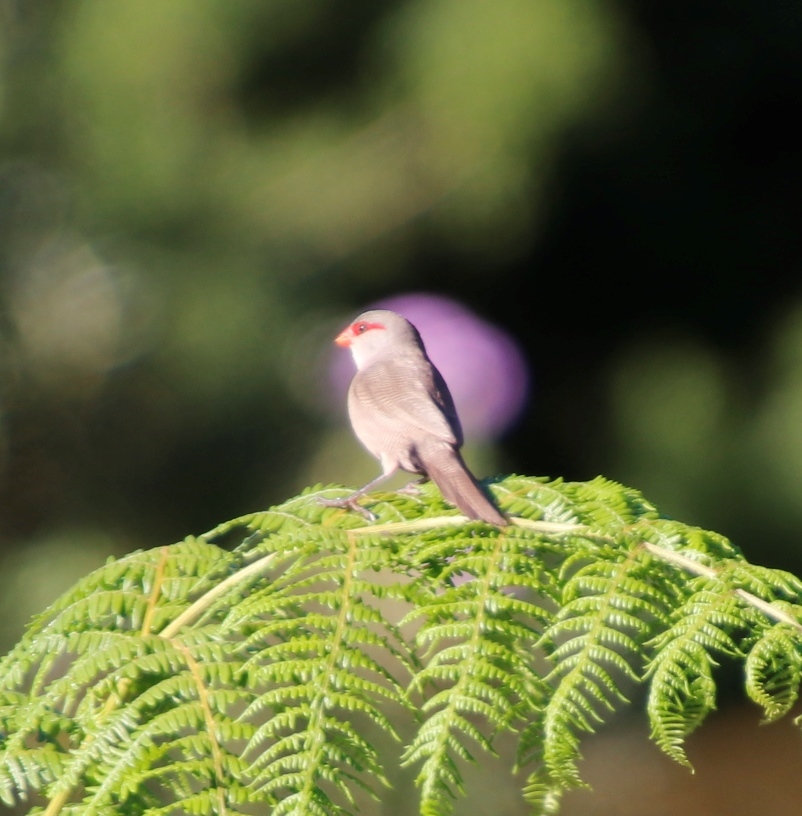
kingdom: Animalia
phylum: Chordata
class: Aves
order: Passeriformes
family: Estrildidae
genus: Estrilda
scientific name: Estrilda astrild
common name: Common waxbill
